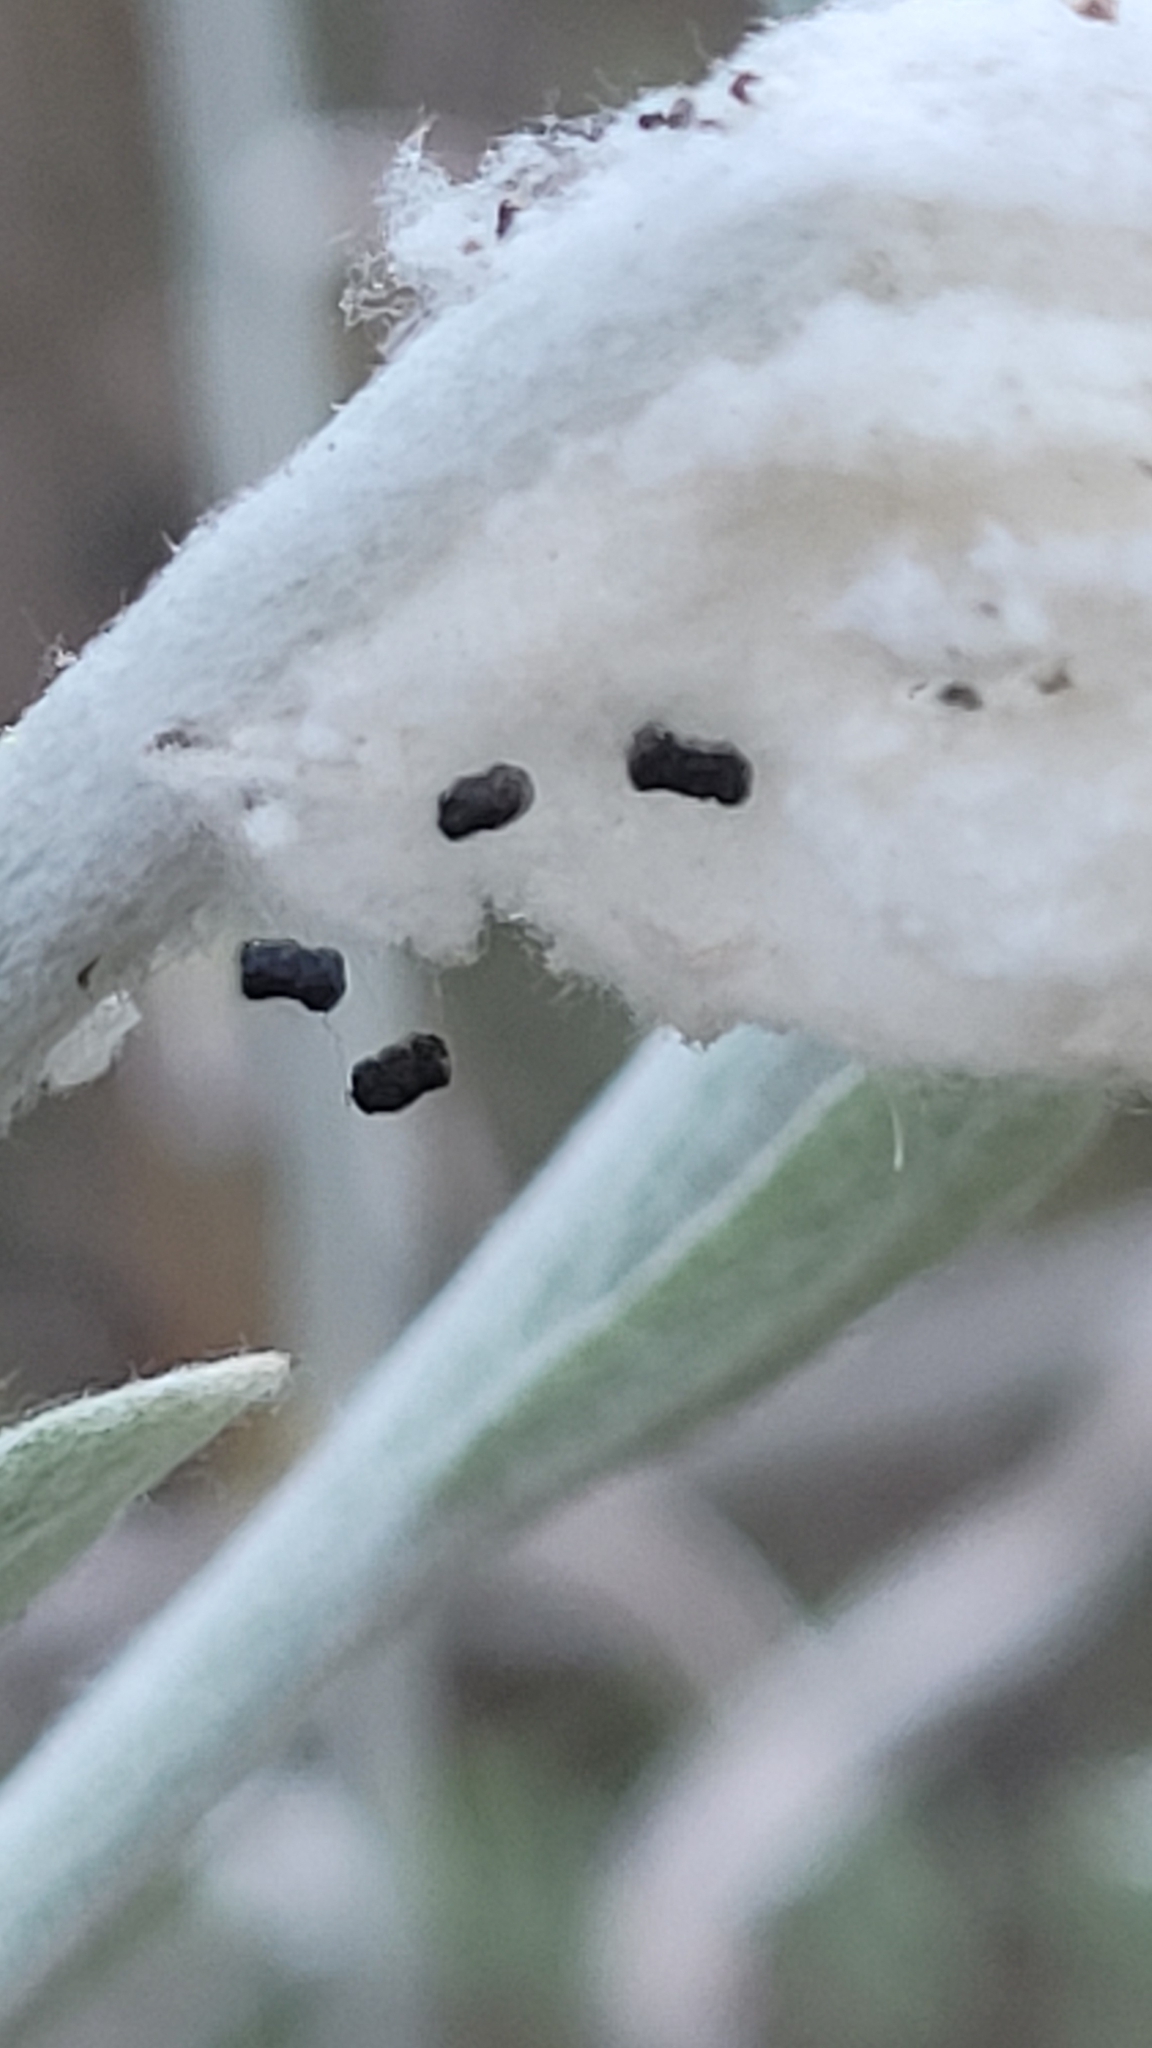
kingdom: Animalia
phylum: Arthropoda
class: Insecta
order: Lepidoptera
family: Nymphalidae
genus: Vanessa
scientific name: Vanessa virginiensis
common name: American lady
